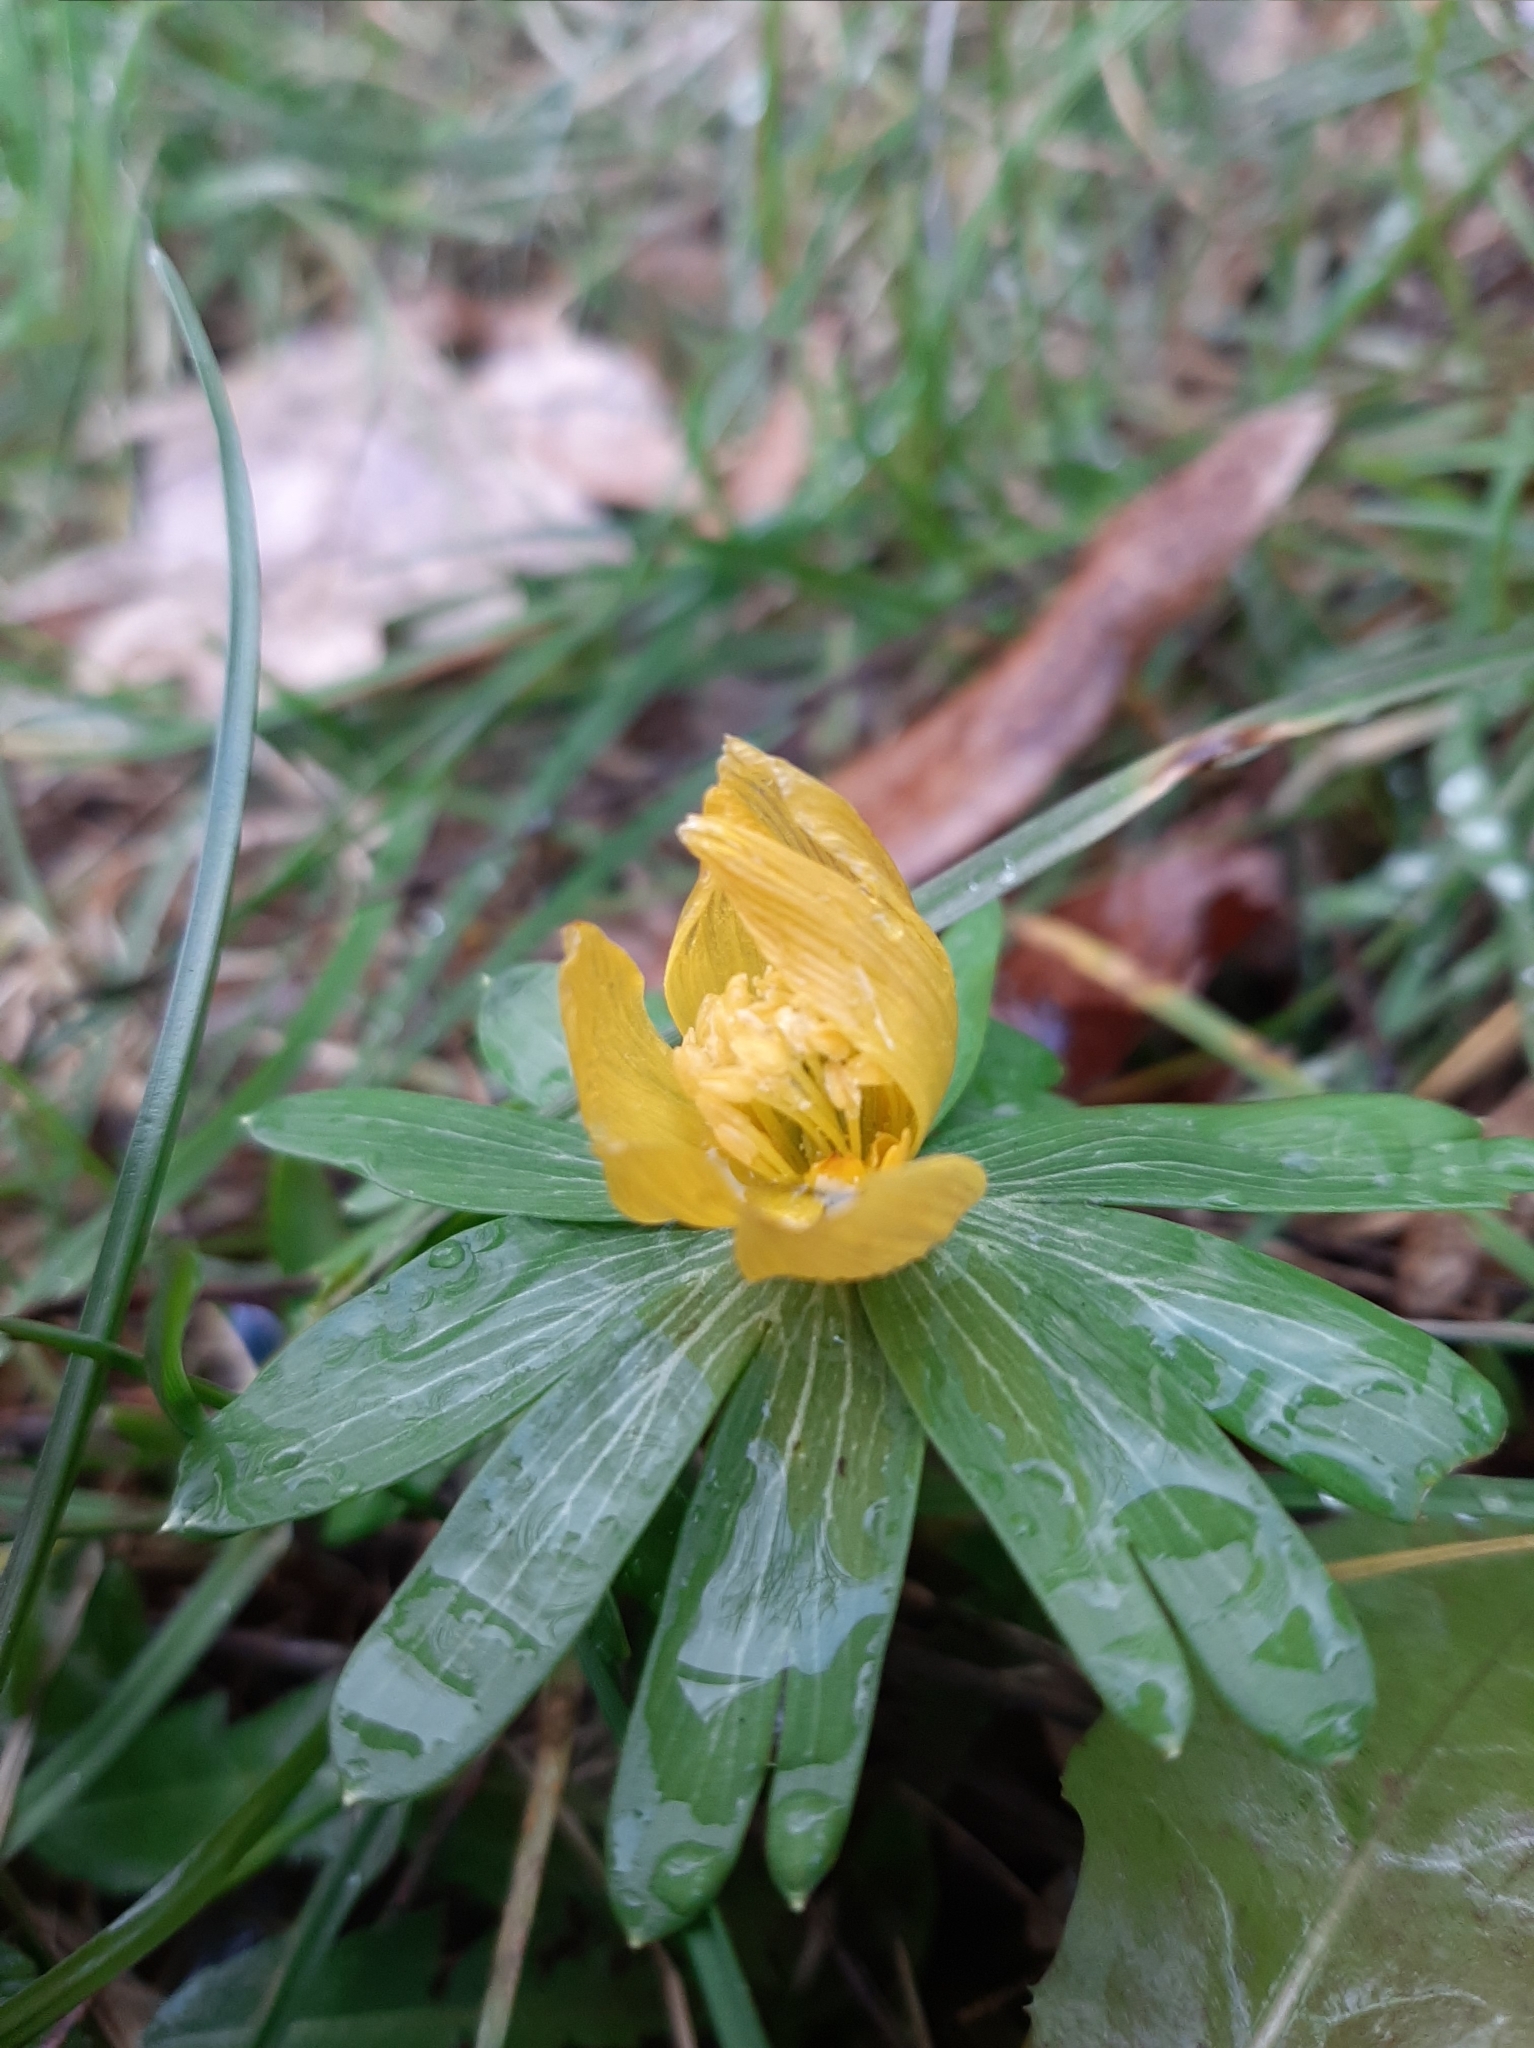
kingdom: Plantae
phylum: Tracheophyta
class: Magnoliopsida
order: Ranunculales
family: Ranunculaceae
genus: Eranthis
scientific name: Eranthis hyemalis
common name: Winter aconite
